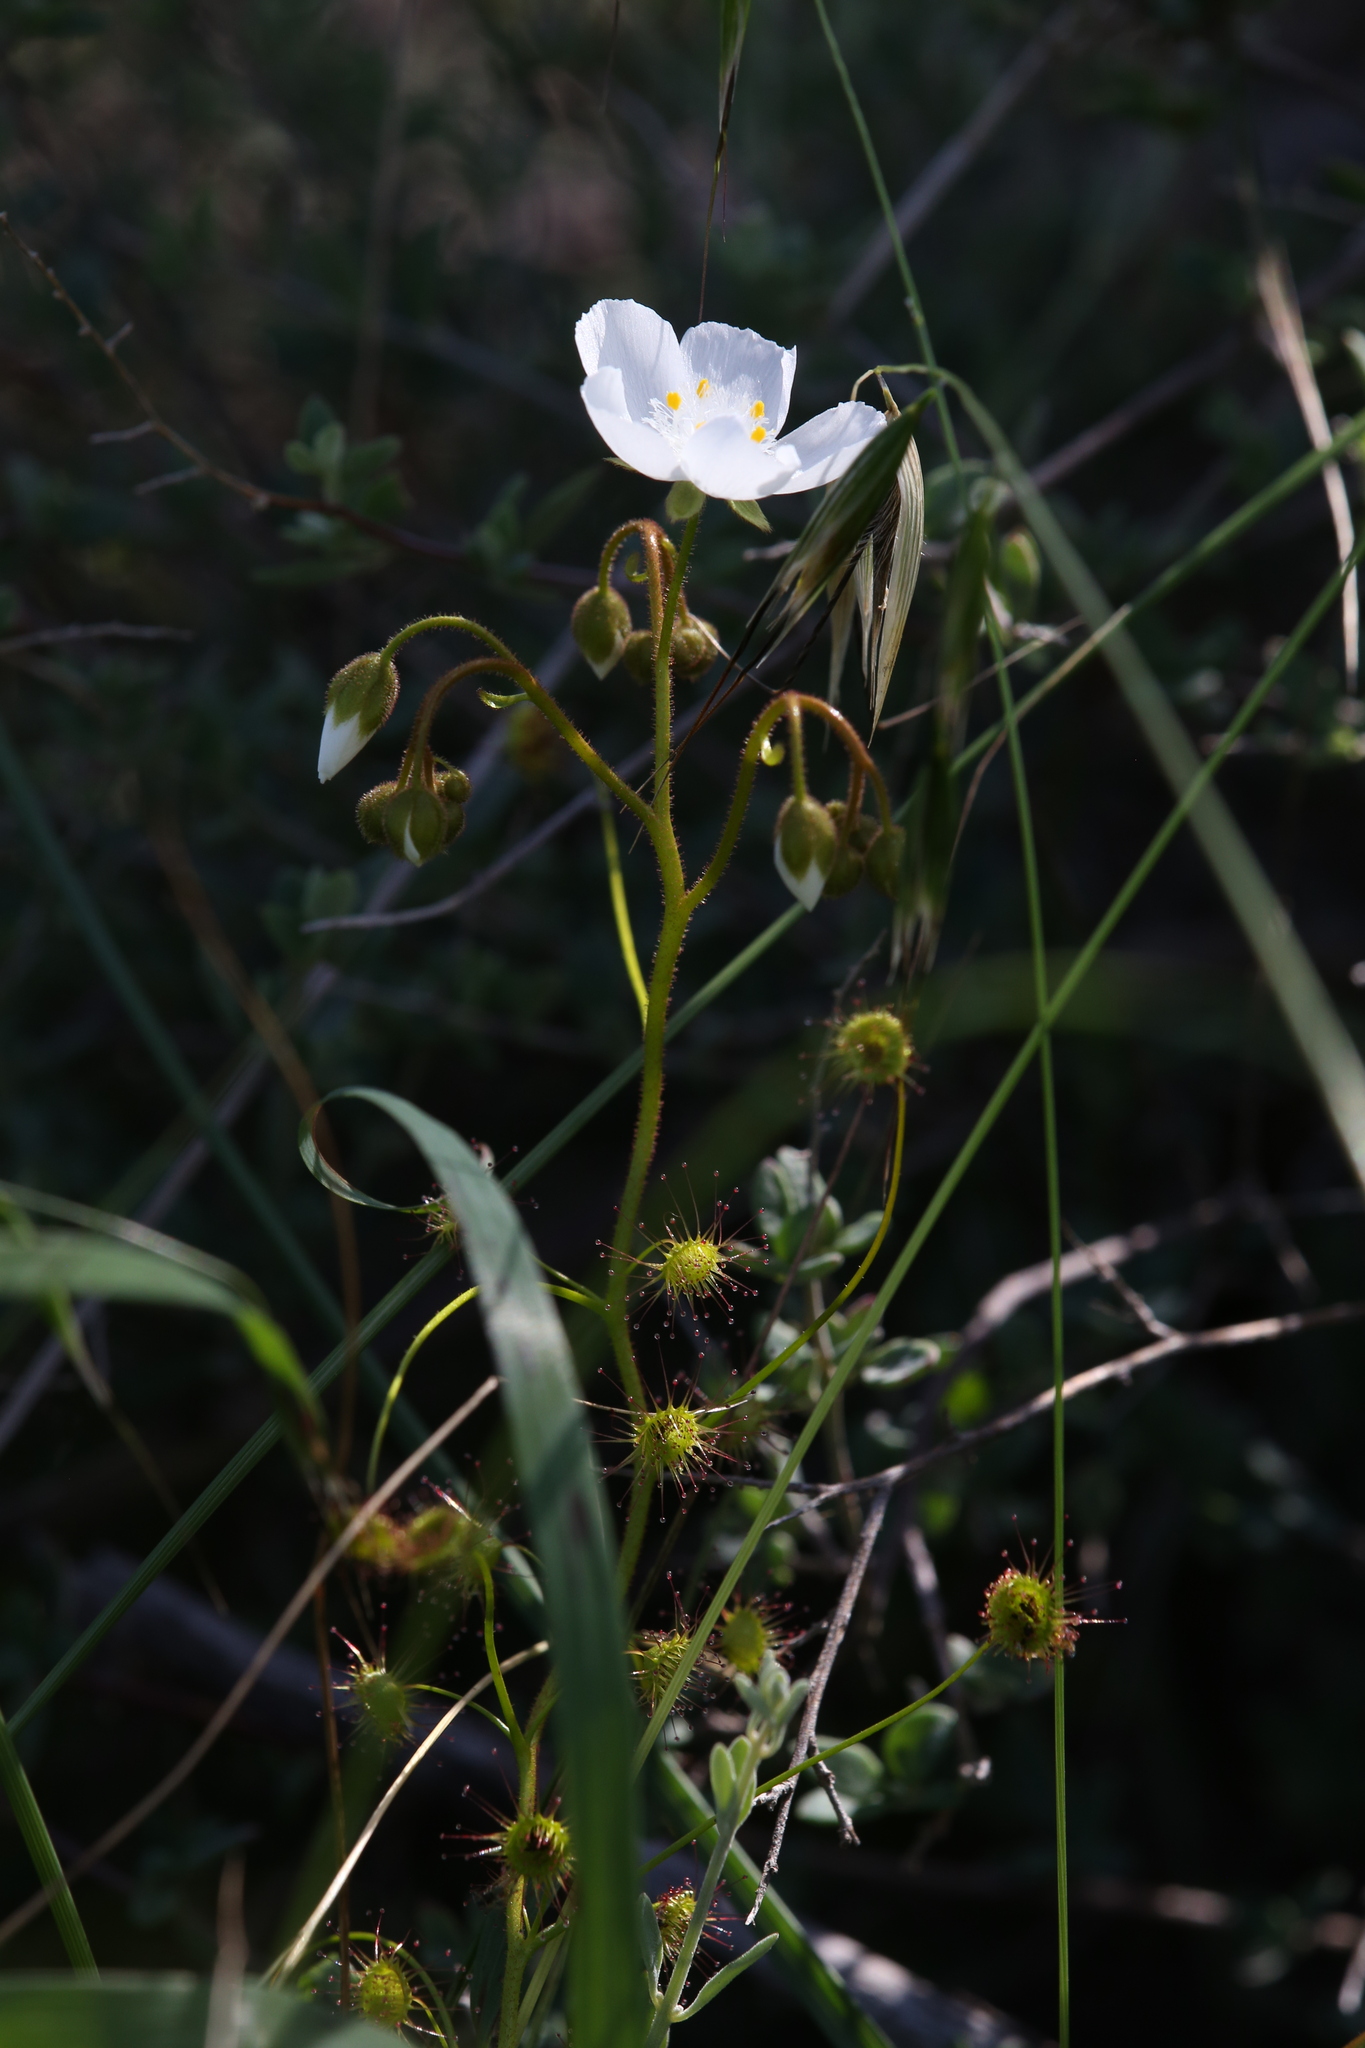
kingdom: Plantae
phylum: Tracheophyta
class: Magnoliopsida
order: Caryophyllales
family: Droseraceae
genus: Drosera
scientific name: Drosera macrantha
